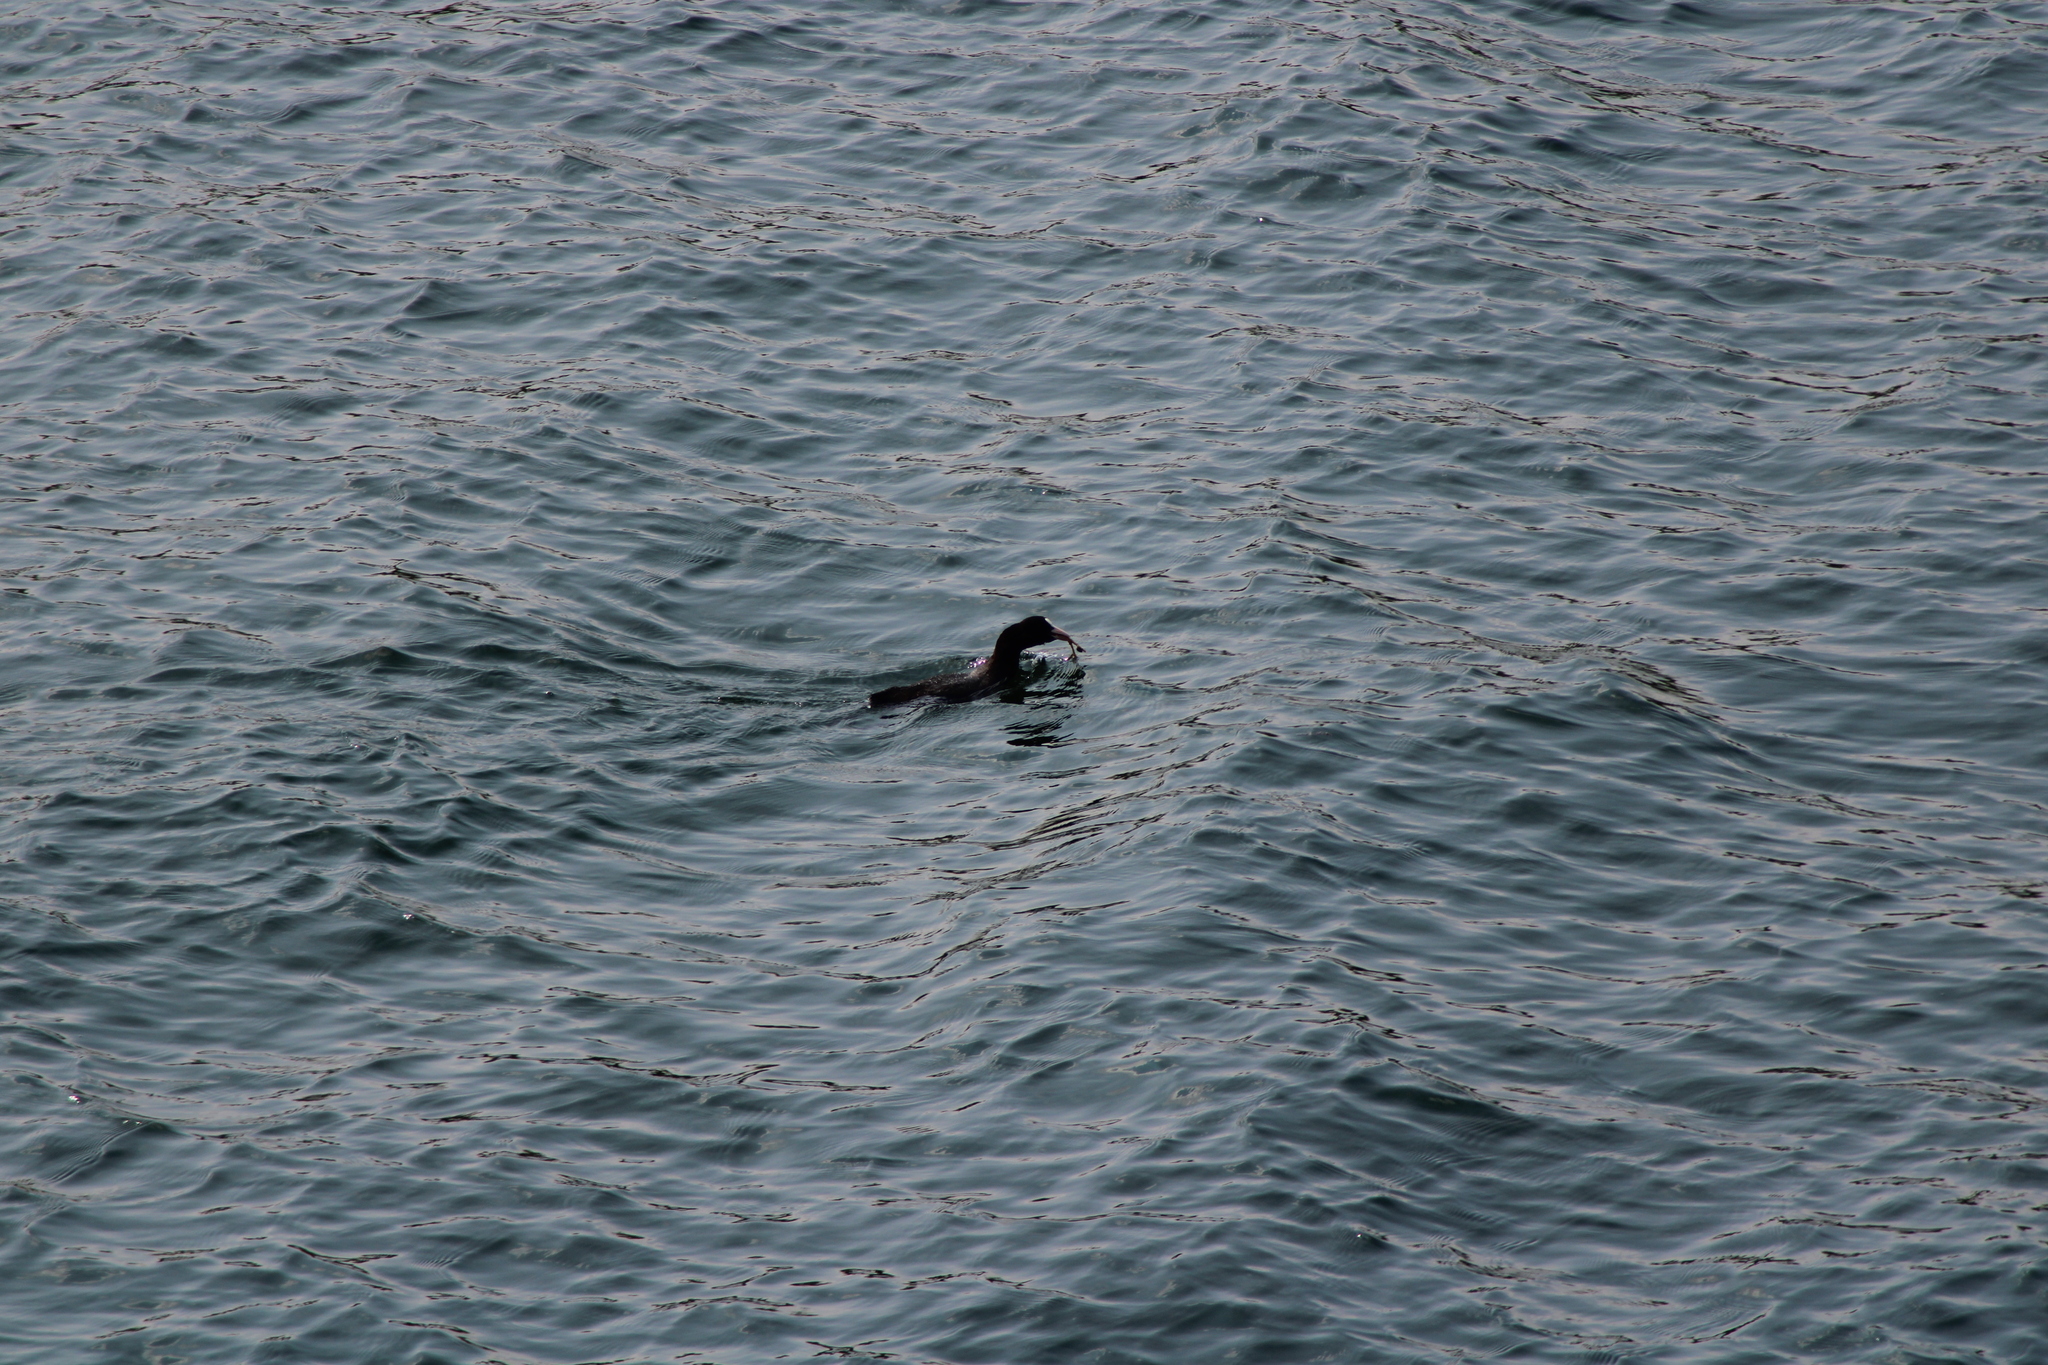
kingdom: Animalia
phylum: Chordata
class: Aves
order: Gruiformes
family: Rallidae
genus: Fulica
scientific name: Fulica atra
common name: Eurasian coot
